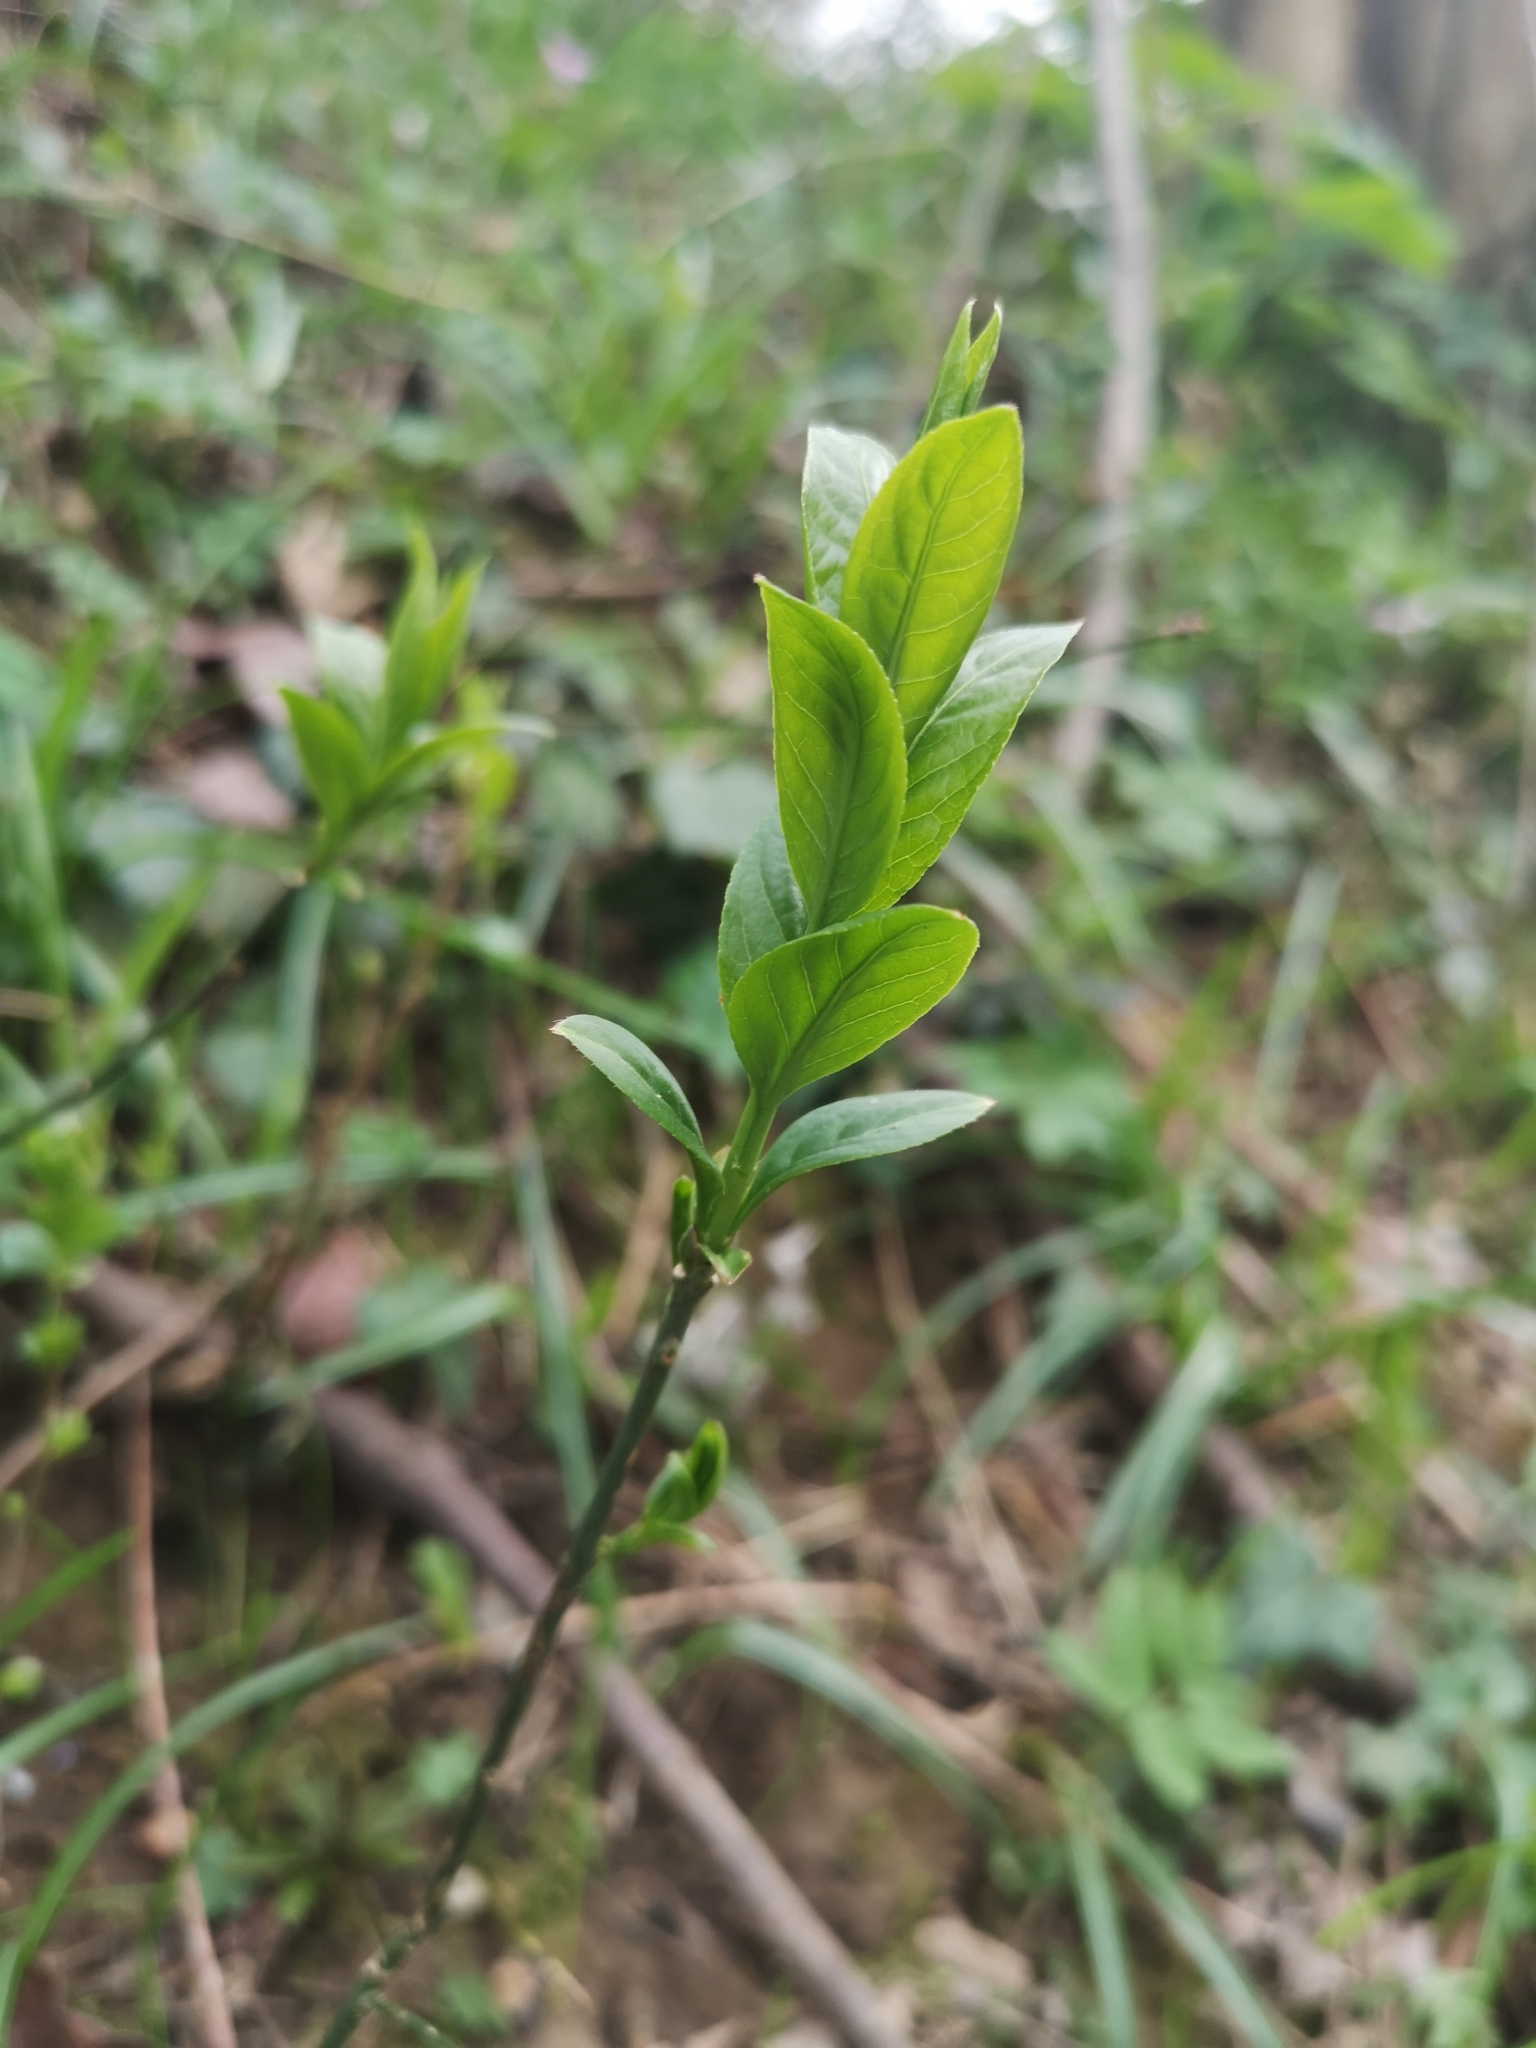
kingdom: Plantae
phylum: Tracheophyta
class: Magnoliopsida
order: Celastrales
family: Celastraceae
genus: Euonymus
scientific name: Euonymus europaeus
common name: Spindle
